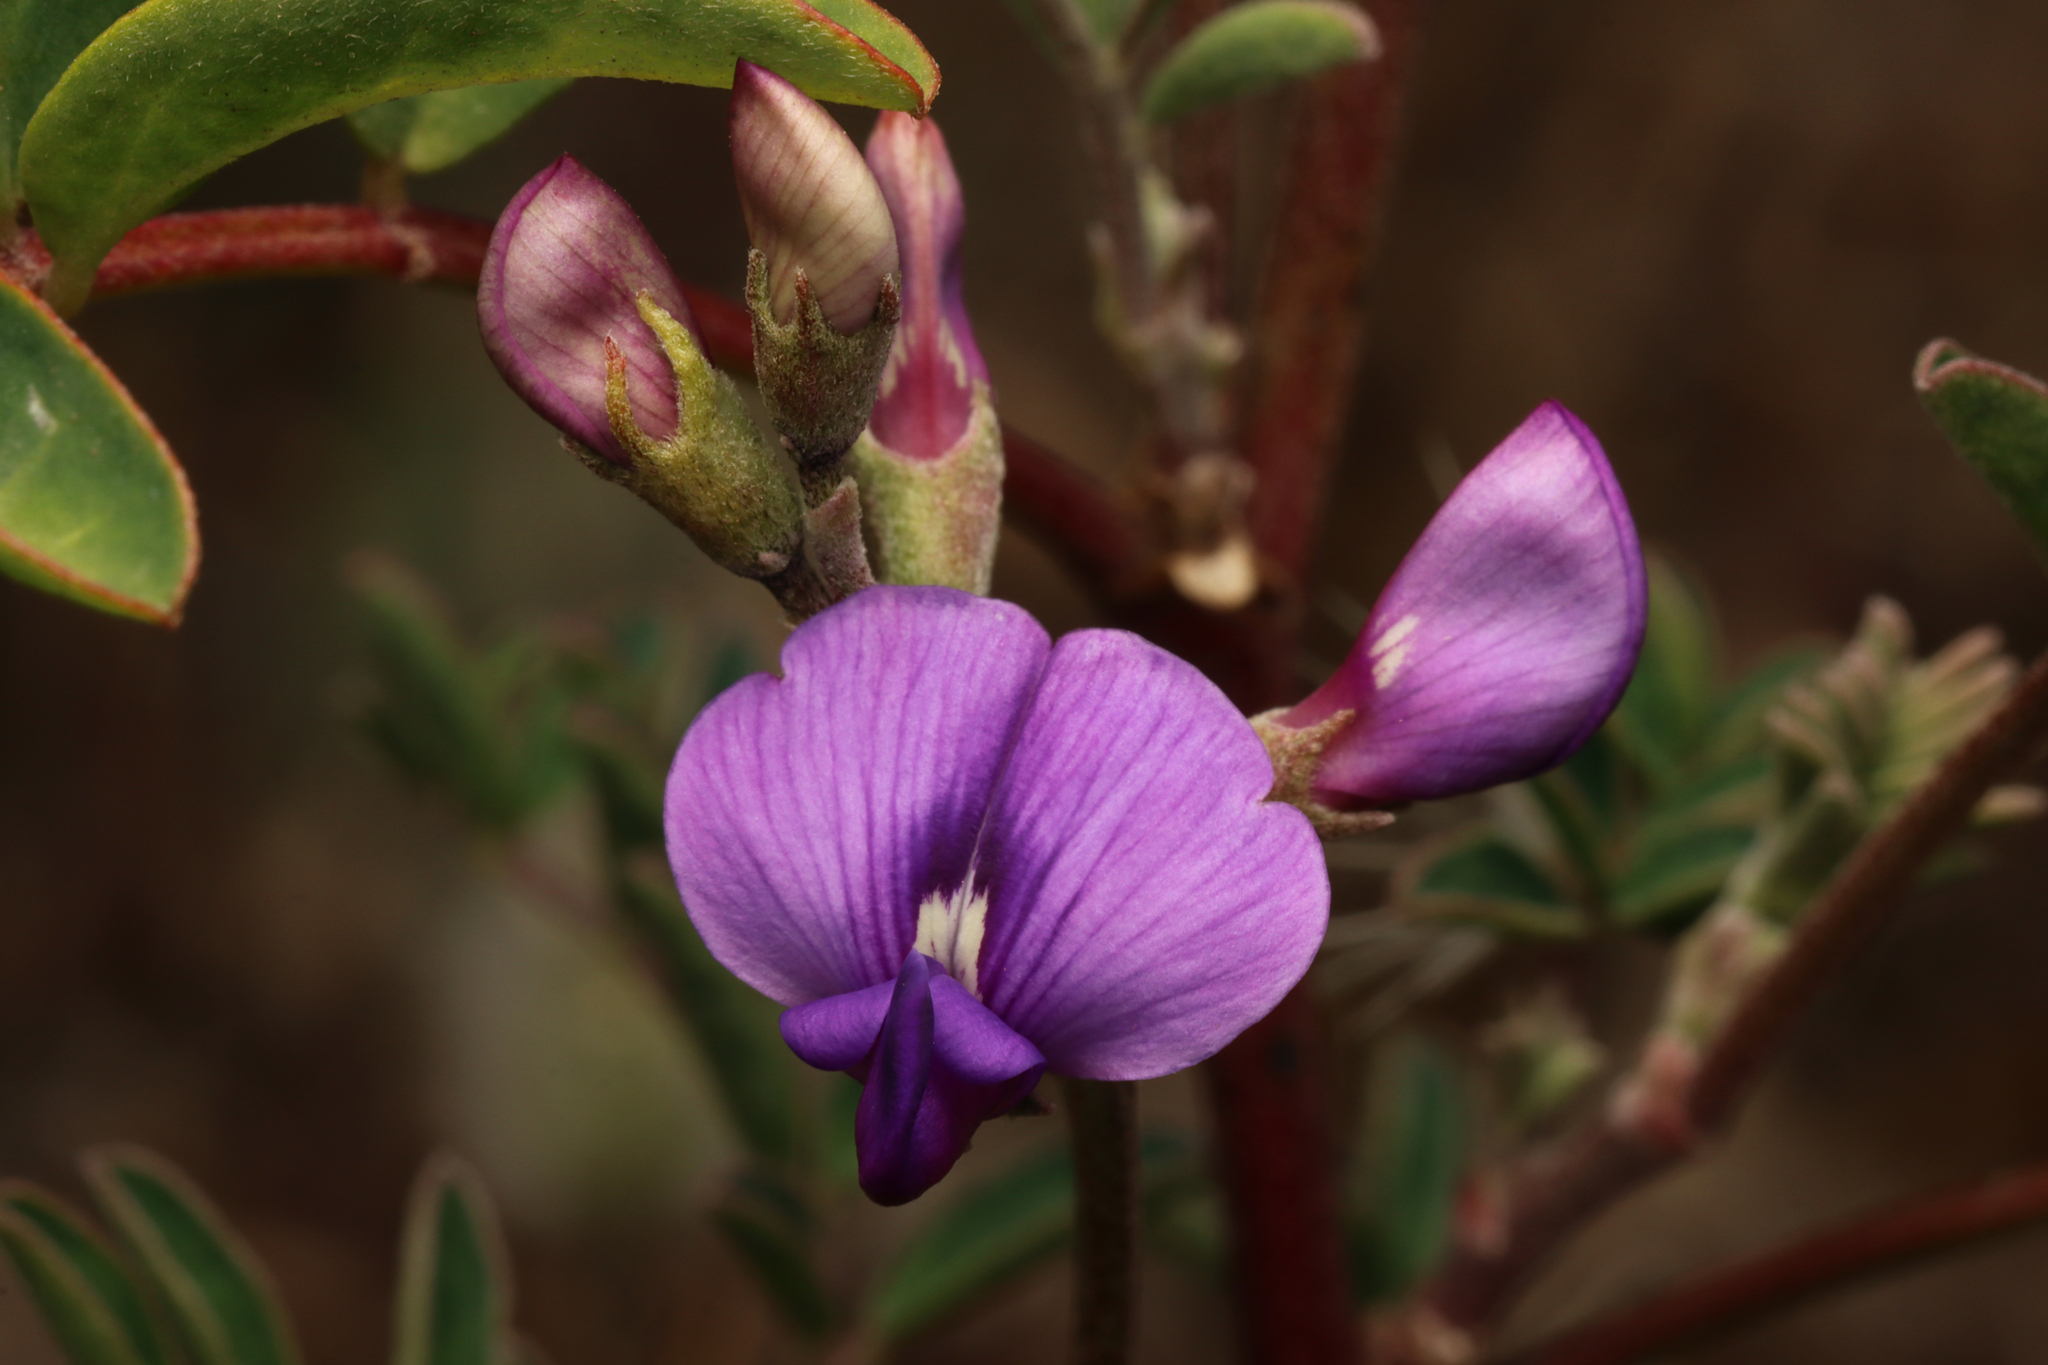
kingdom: Plantae
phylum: Tracheophyta
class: Magnoliopsida
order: Fabales
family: Fabaceae
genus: Swainsona
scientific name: Swainsona lessertiifolia
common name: Bog-pea
